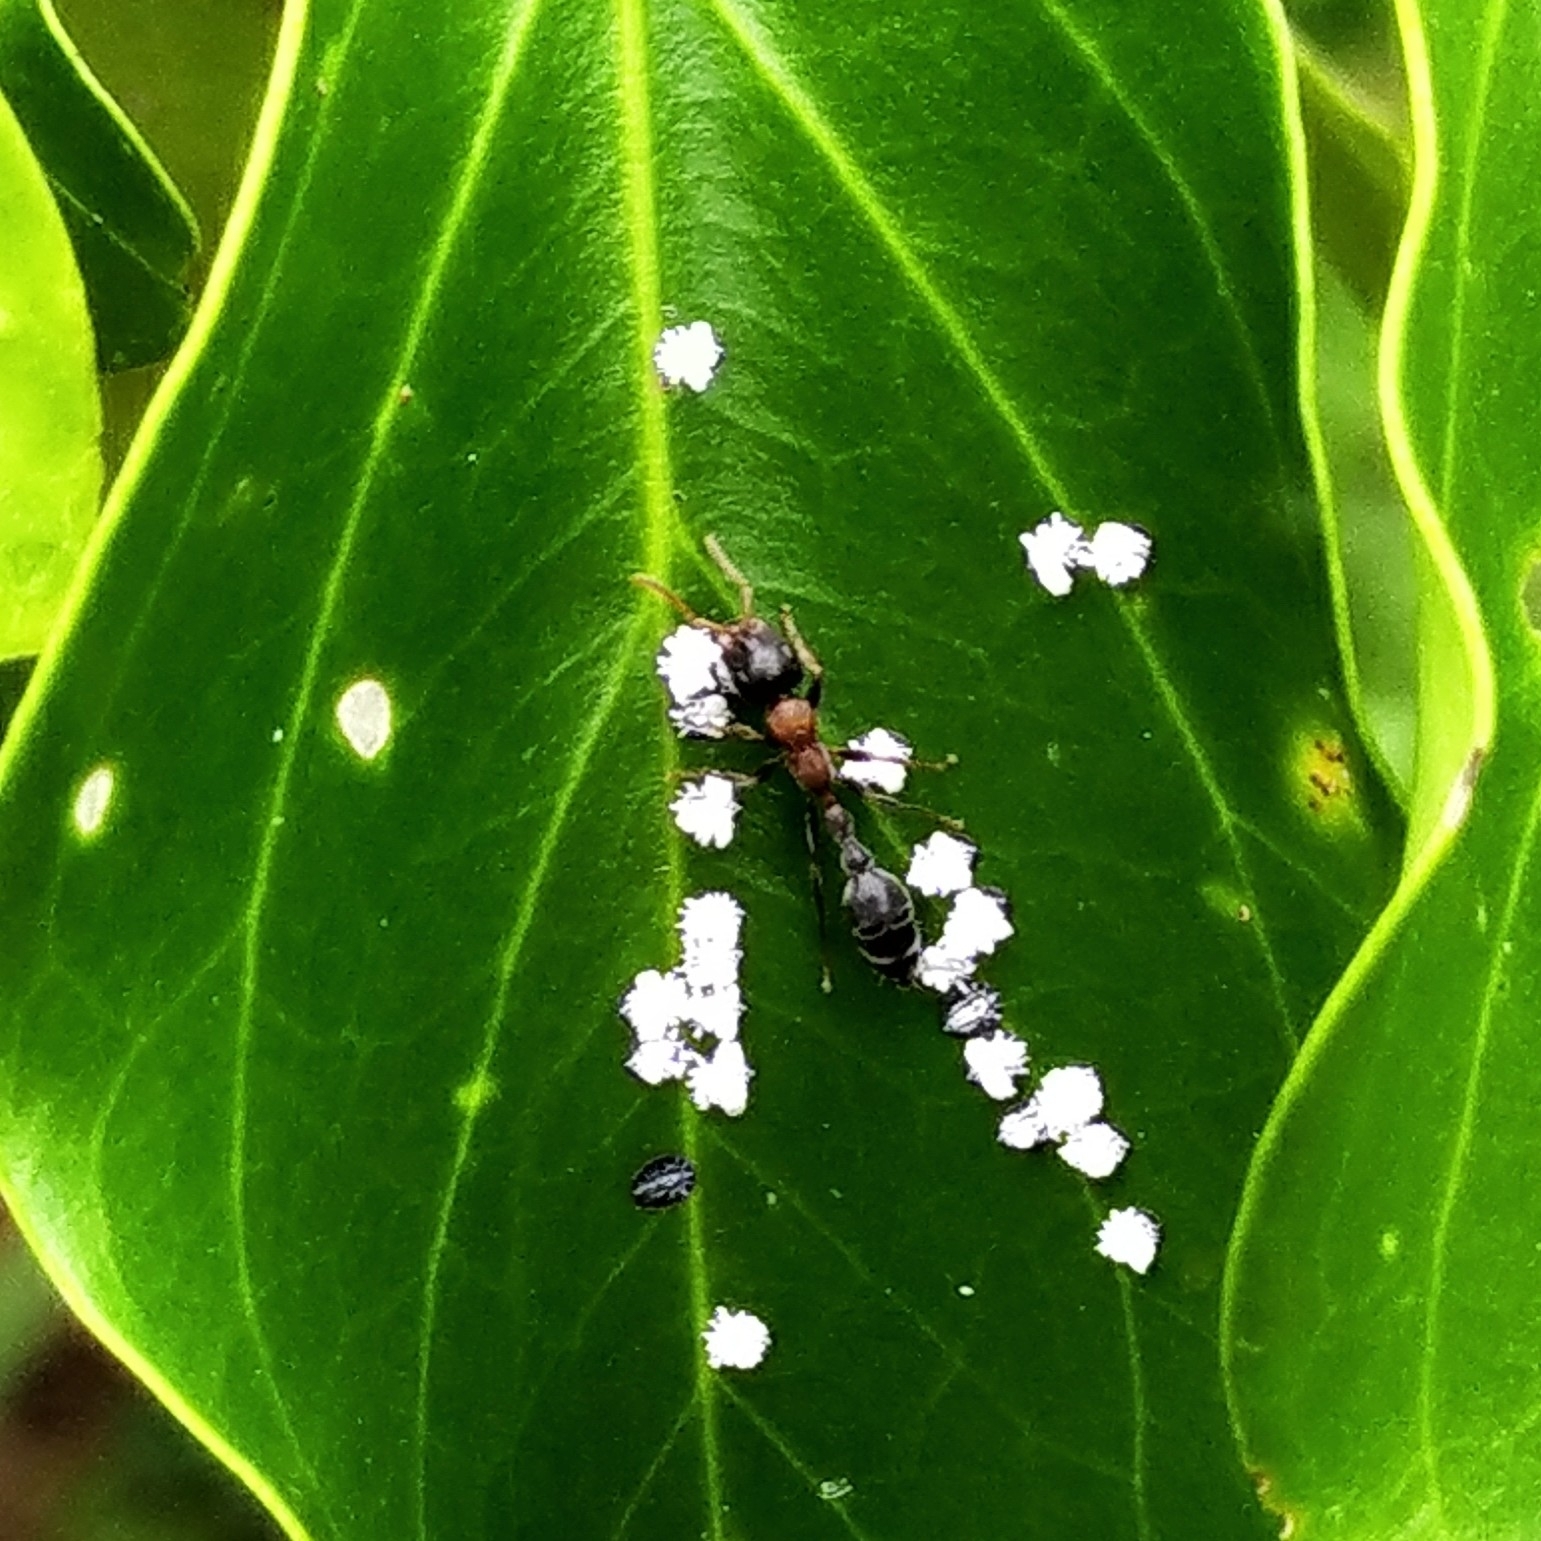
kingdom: Animalia
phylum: Arthropoda
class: Insecta
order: Hymenoptera
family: Formicidae
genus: Tetraponera
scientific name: Tetraponera rufonigra
